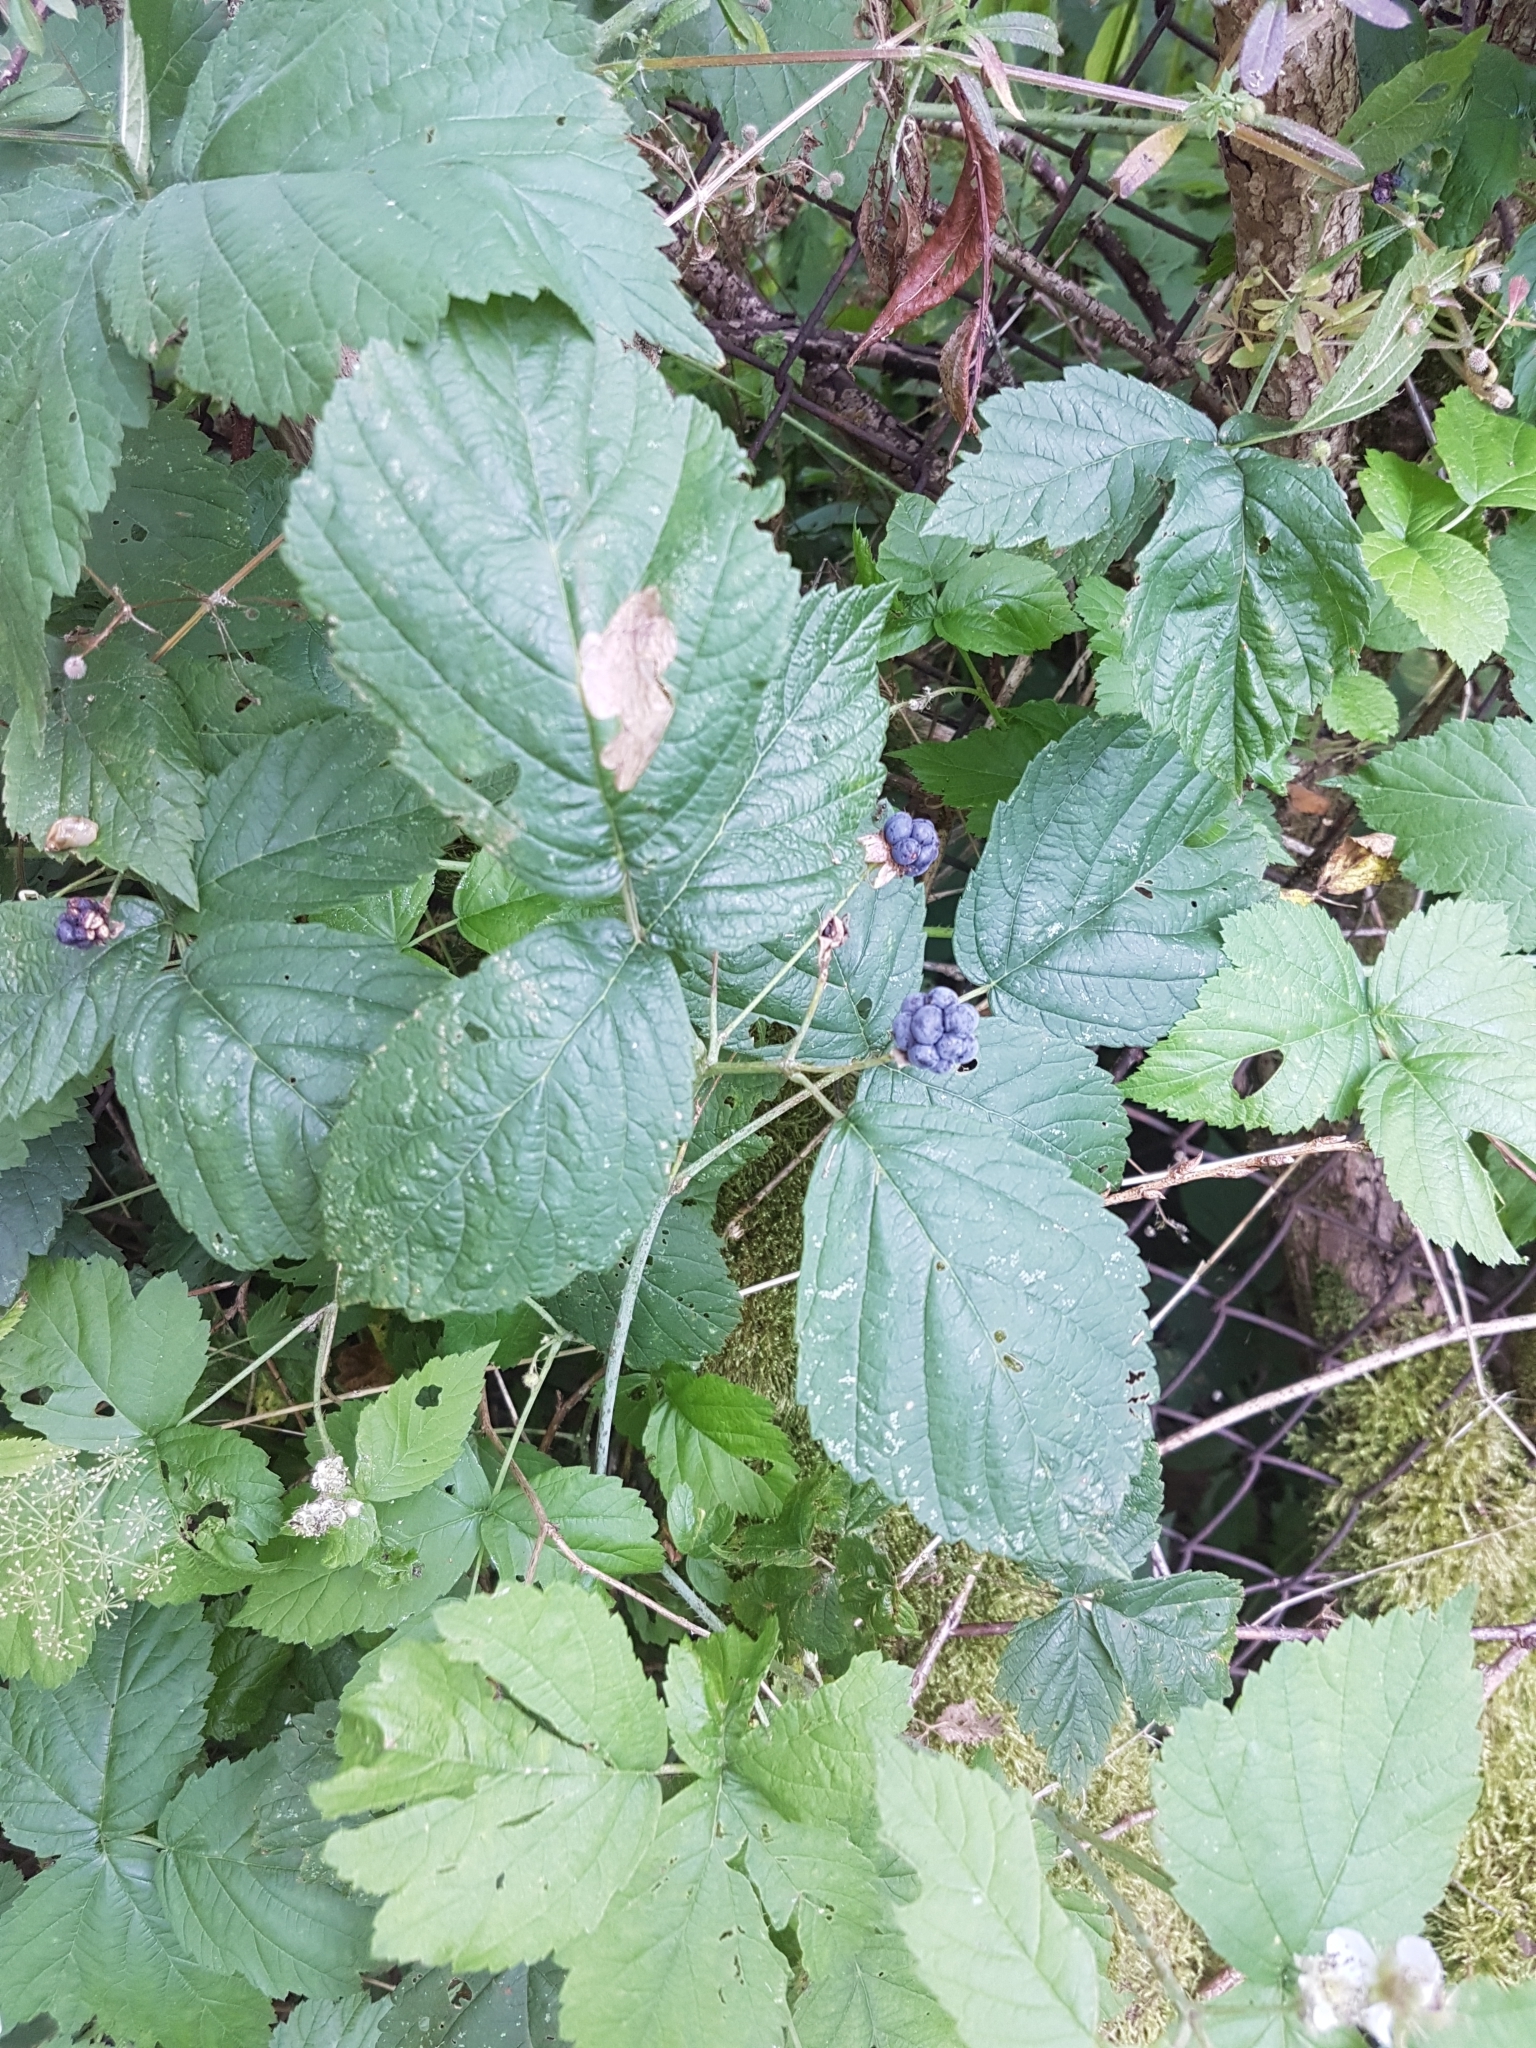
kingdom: Plantae
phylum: Tracheophyta
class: Magnoliopsida
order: Rosales
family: Rosaceae
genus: Rubus
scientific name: Rubus caesius
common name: Dewberry
